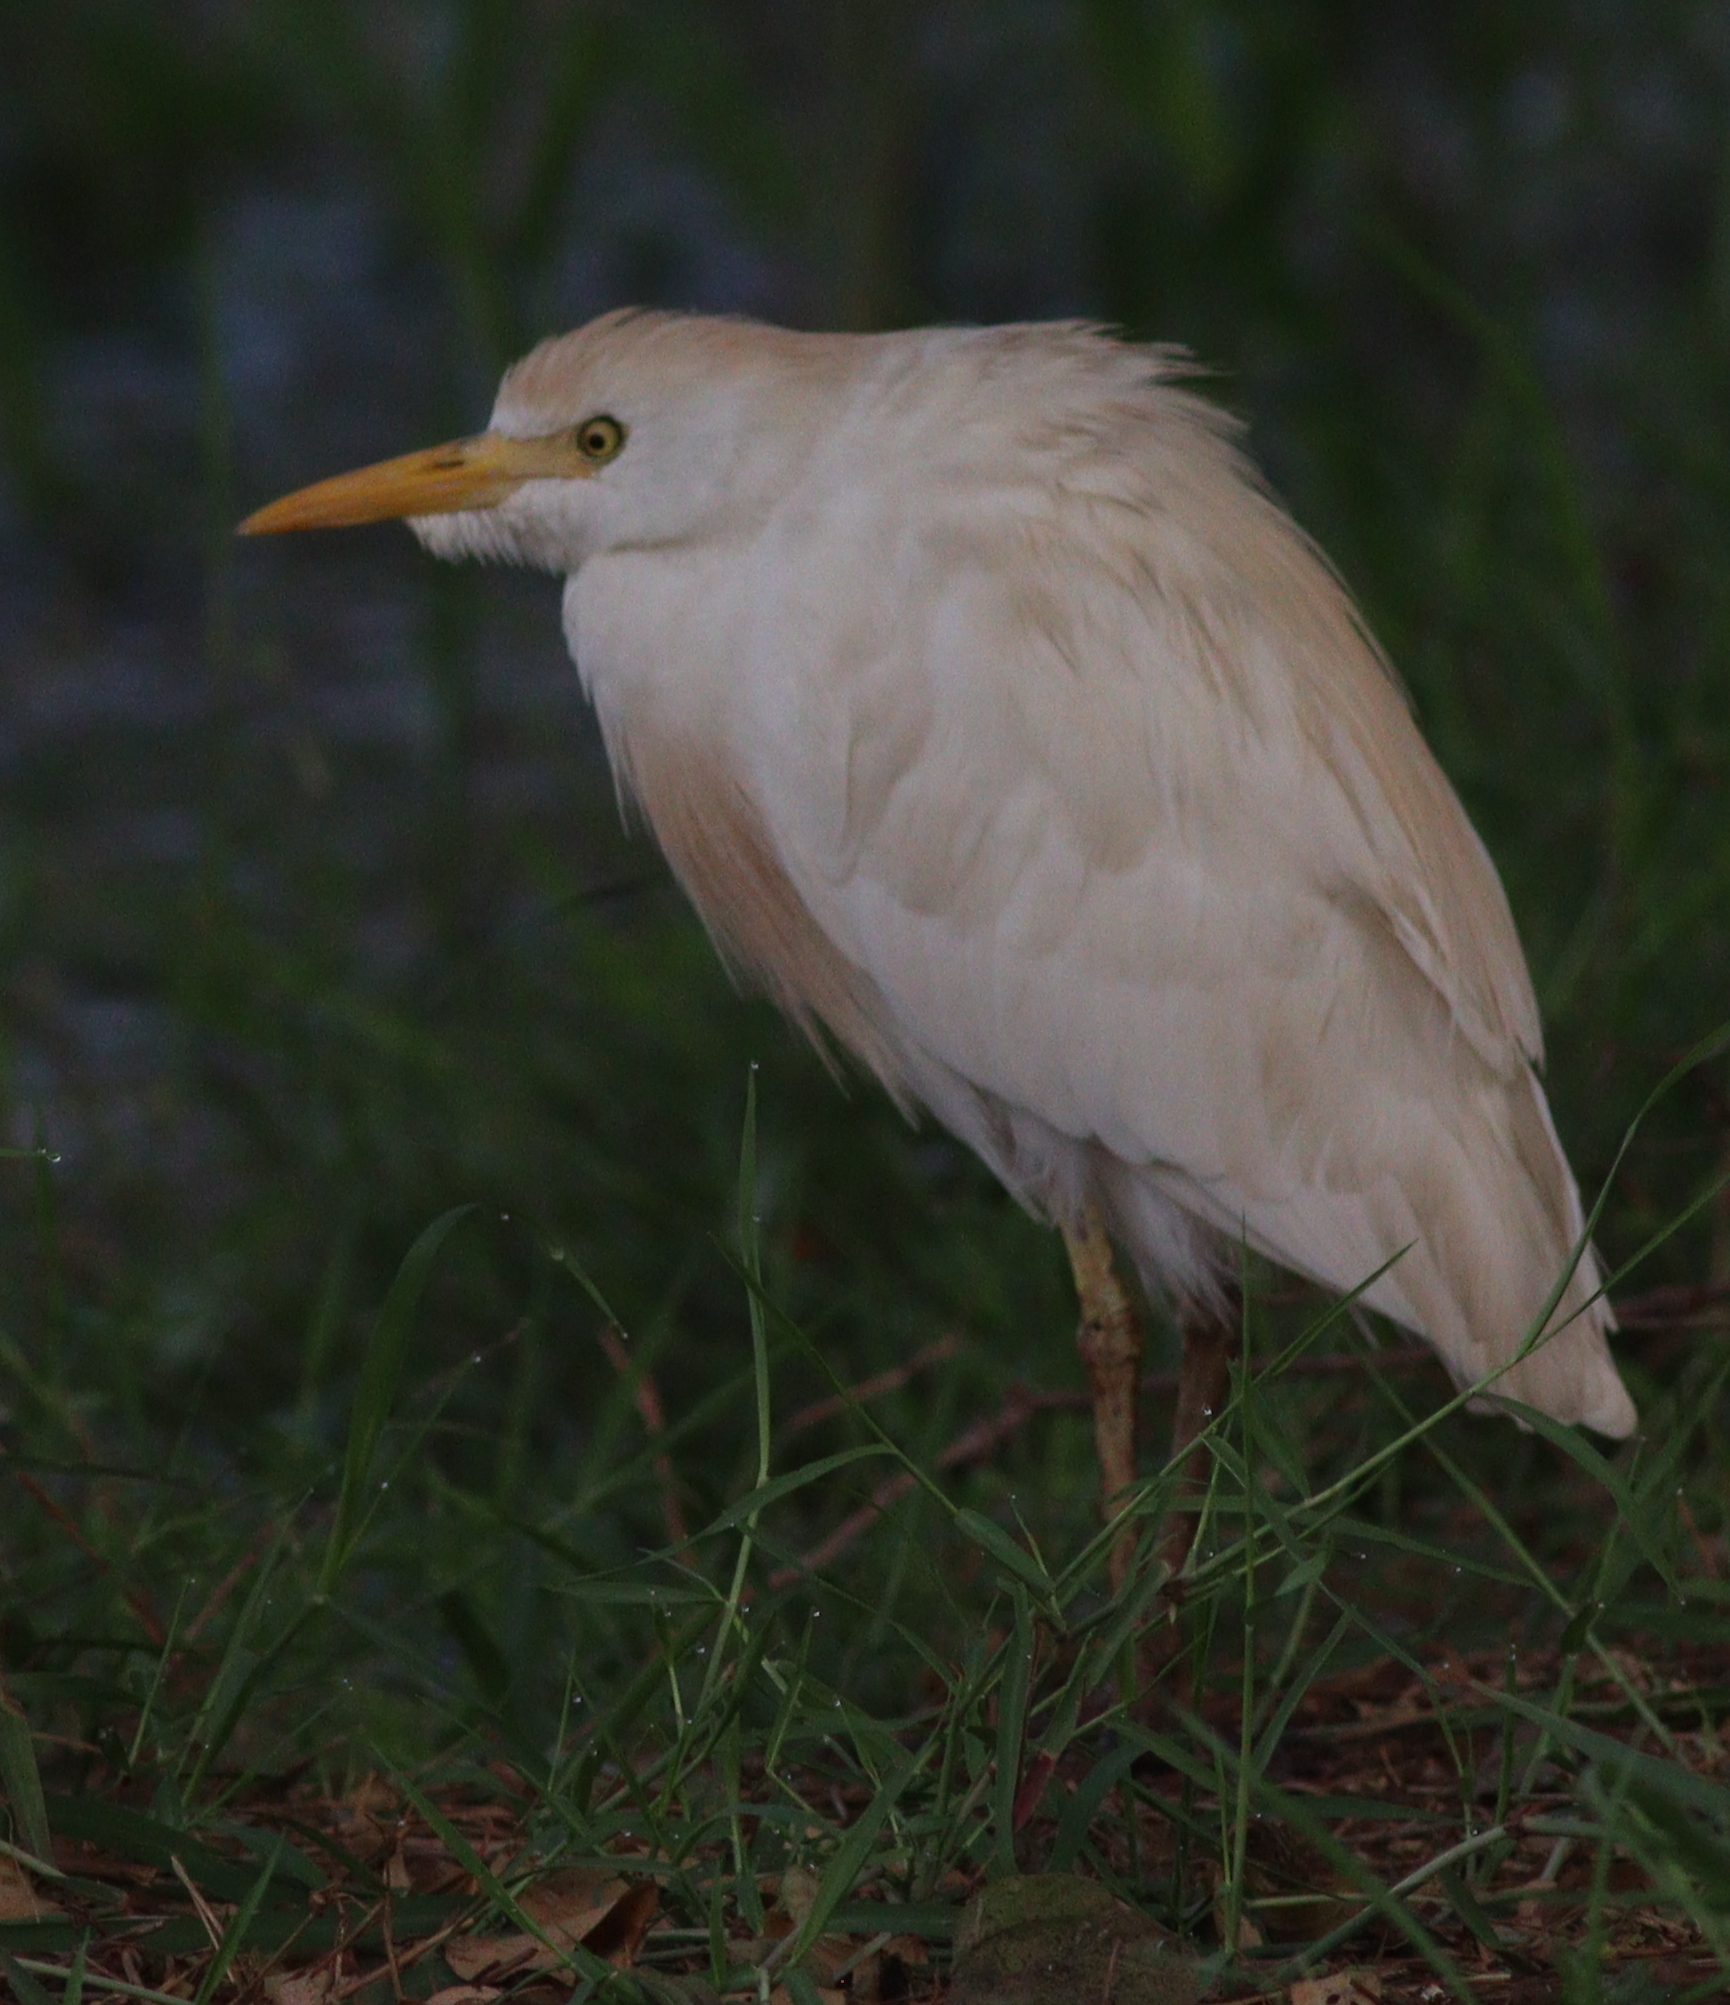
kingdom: Animalia
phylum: Chordata
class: Aves
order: Pelecaniformes
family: Ardeidae
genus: Bubulcus
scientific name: Bubulcus ibis
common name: Cattle egret
